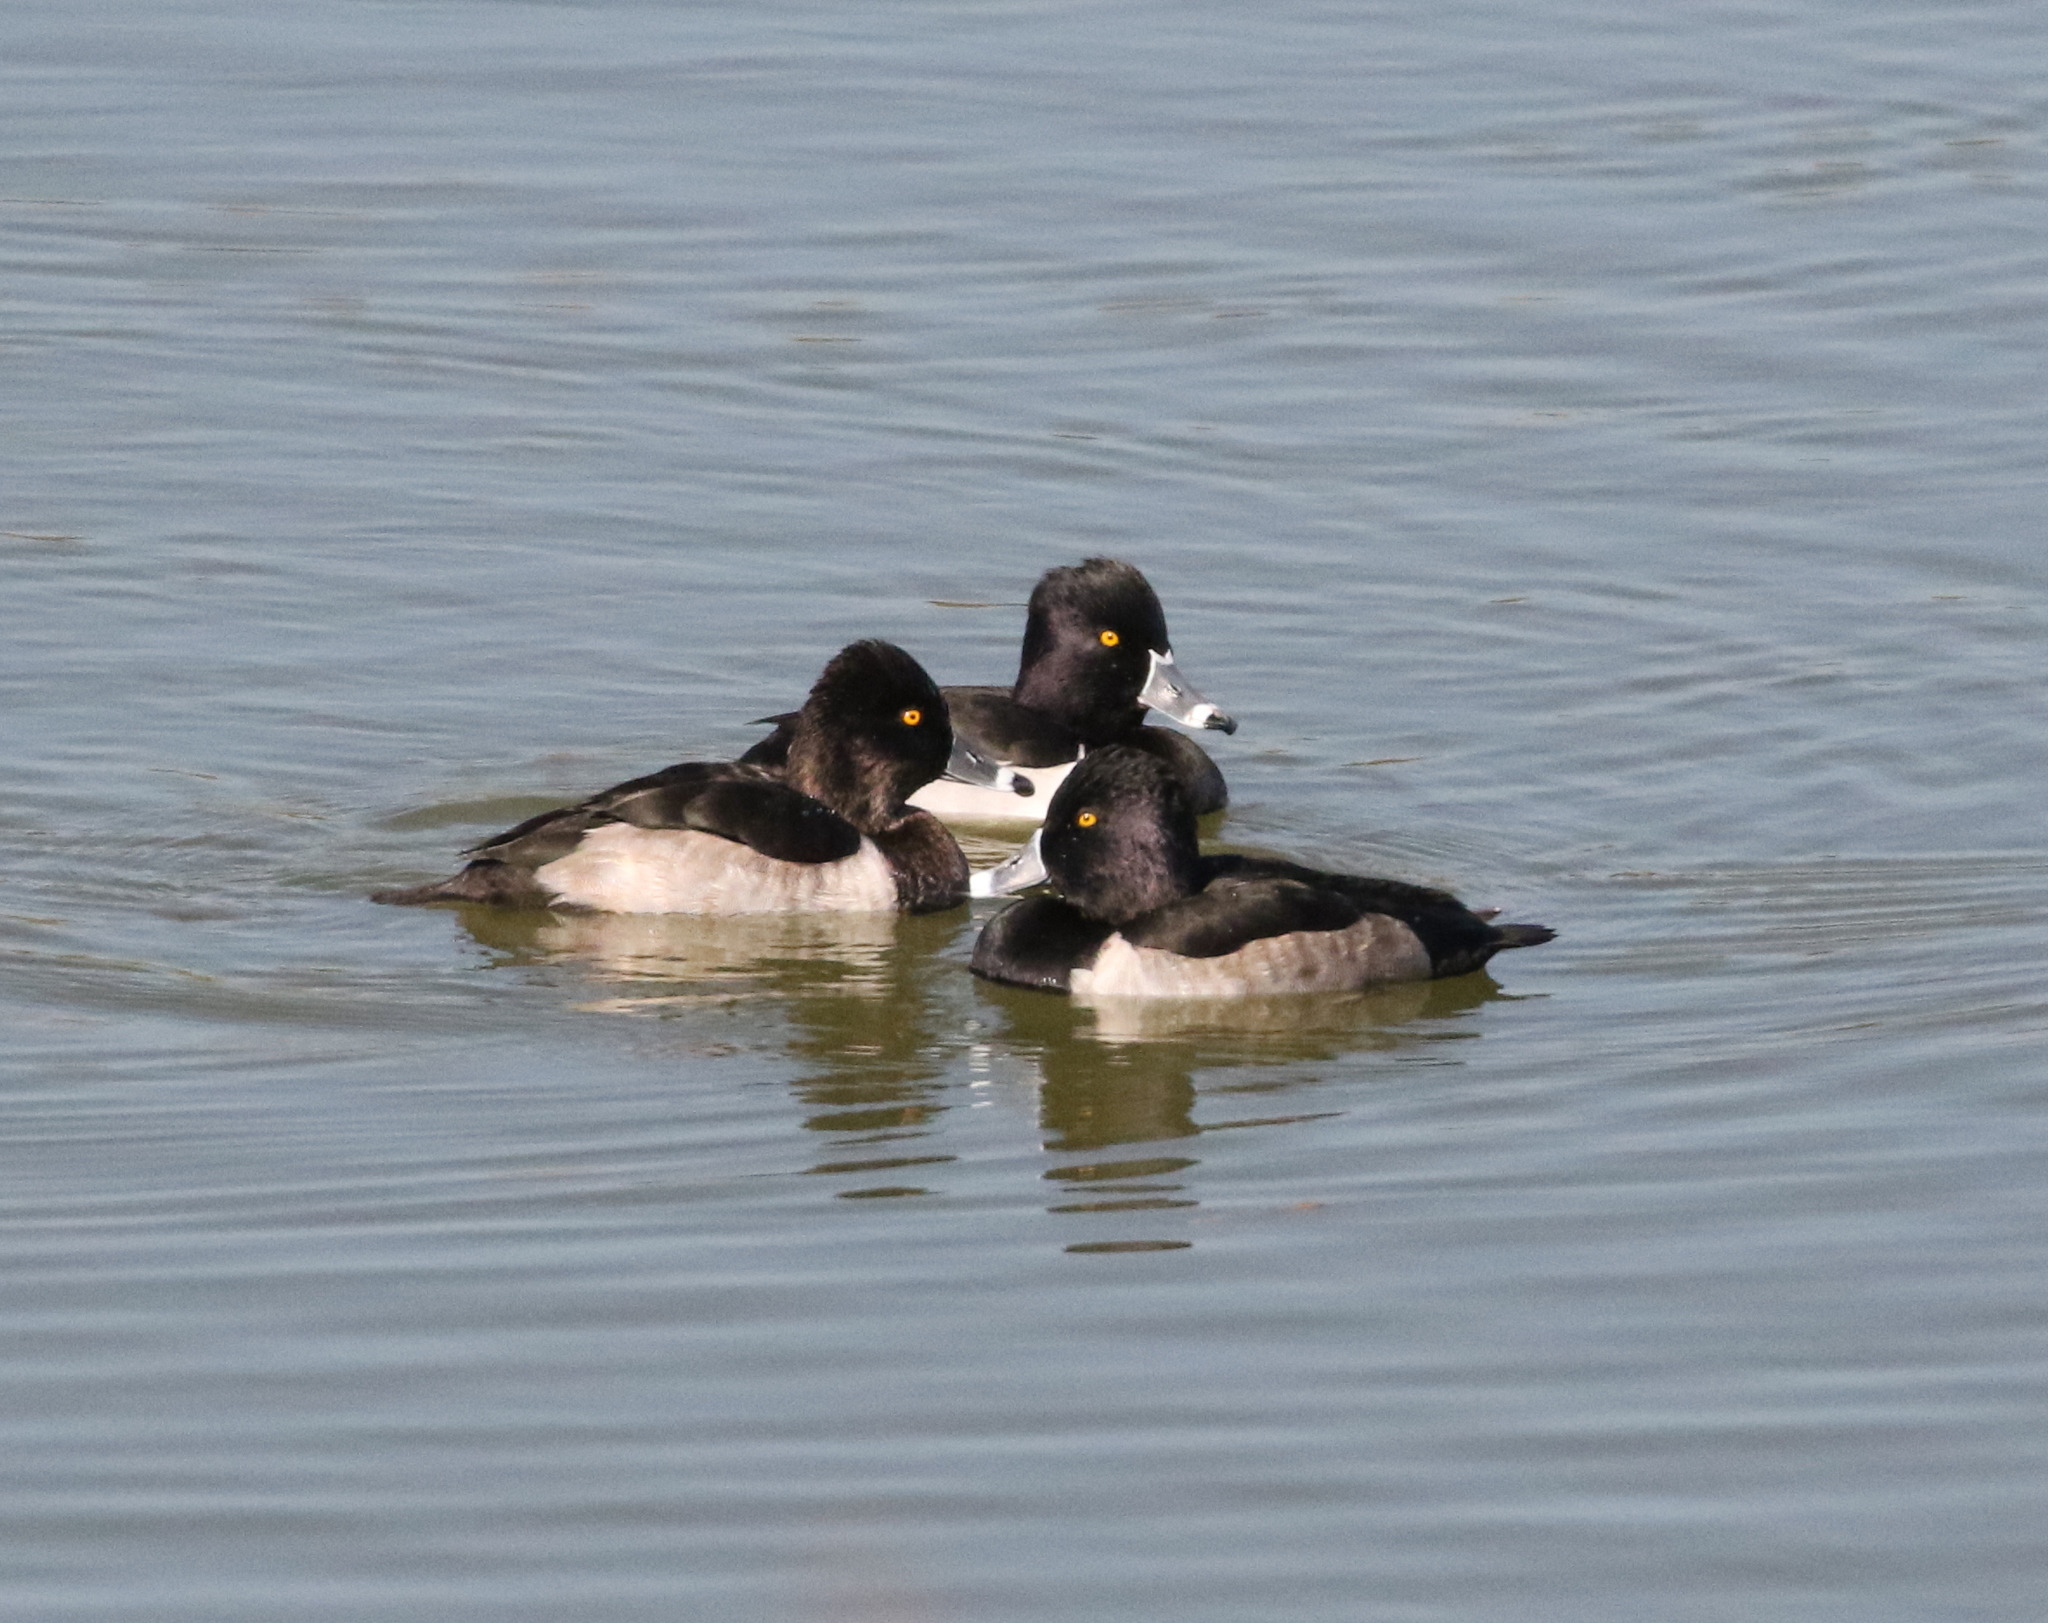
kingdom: Animalia
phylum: Chordata
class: Aves
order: Anseriformes
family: Anatidae
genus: Aythya
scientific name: Aythya collaris
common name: Ring-necked duck
